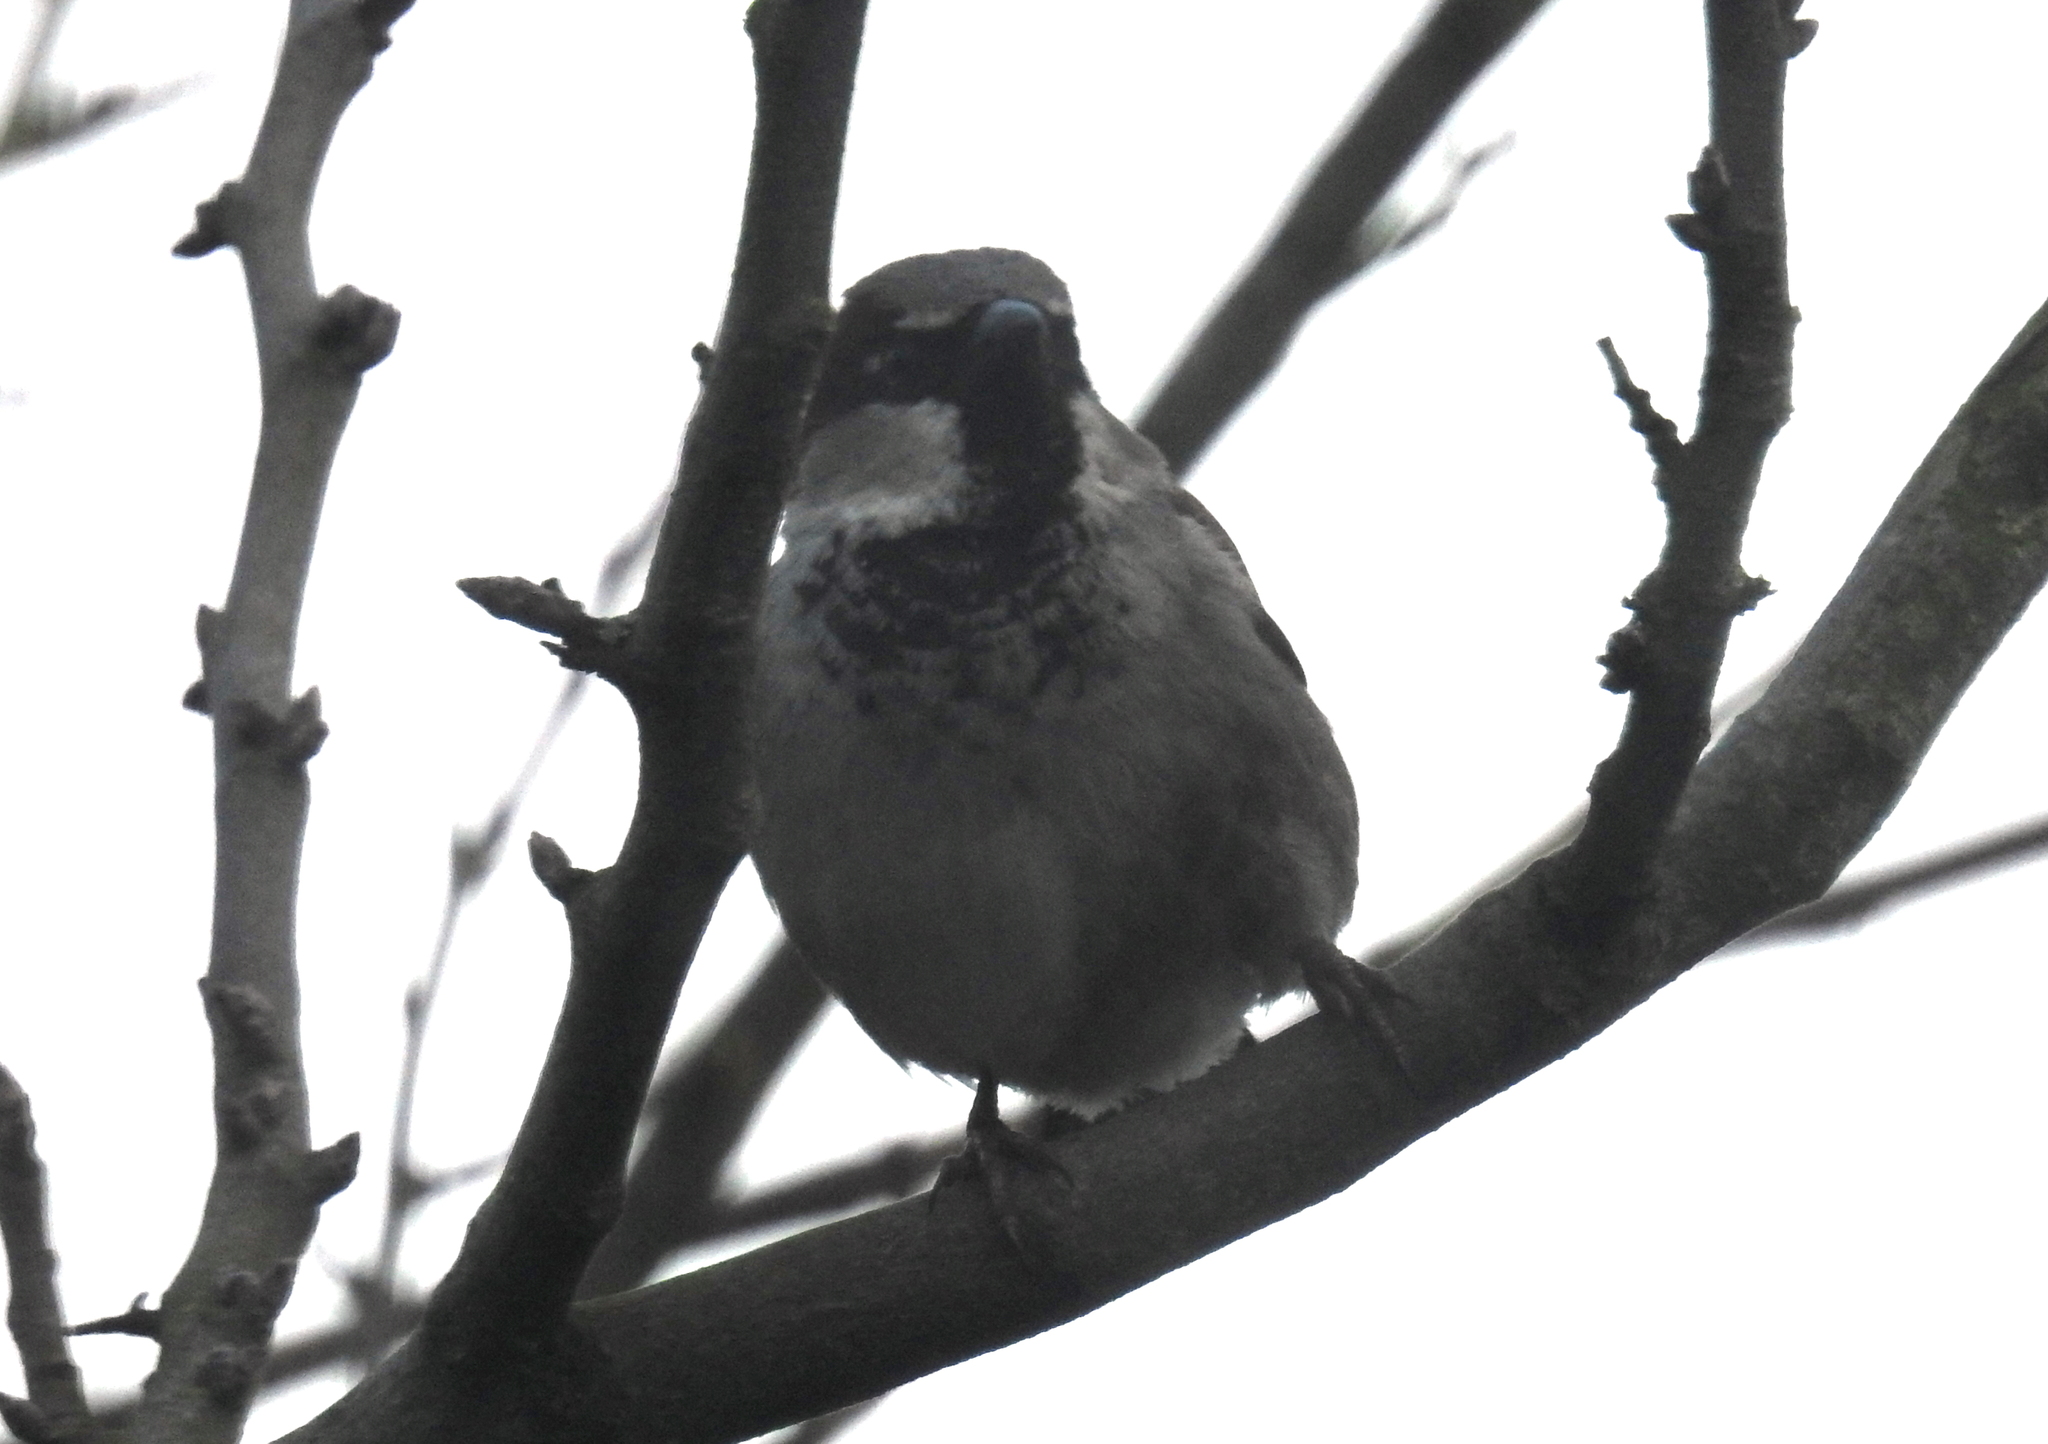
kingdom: Animalia
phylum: Chordata
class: Aves
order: Passeriformes
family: Passeridae
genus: Passer
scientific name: Passer domesticus
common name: House sparrow
